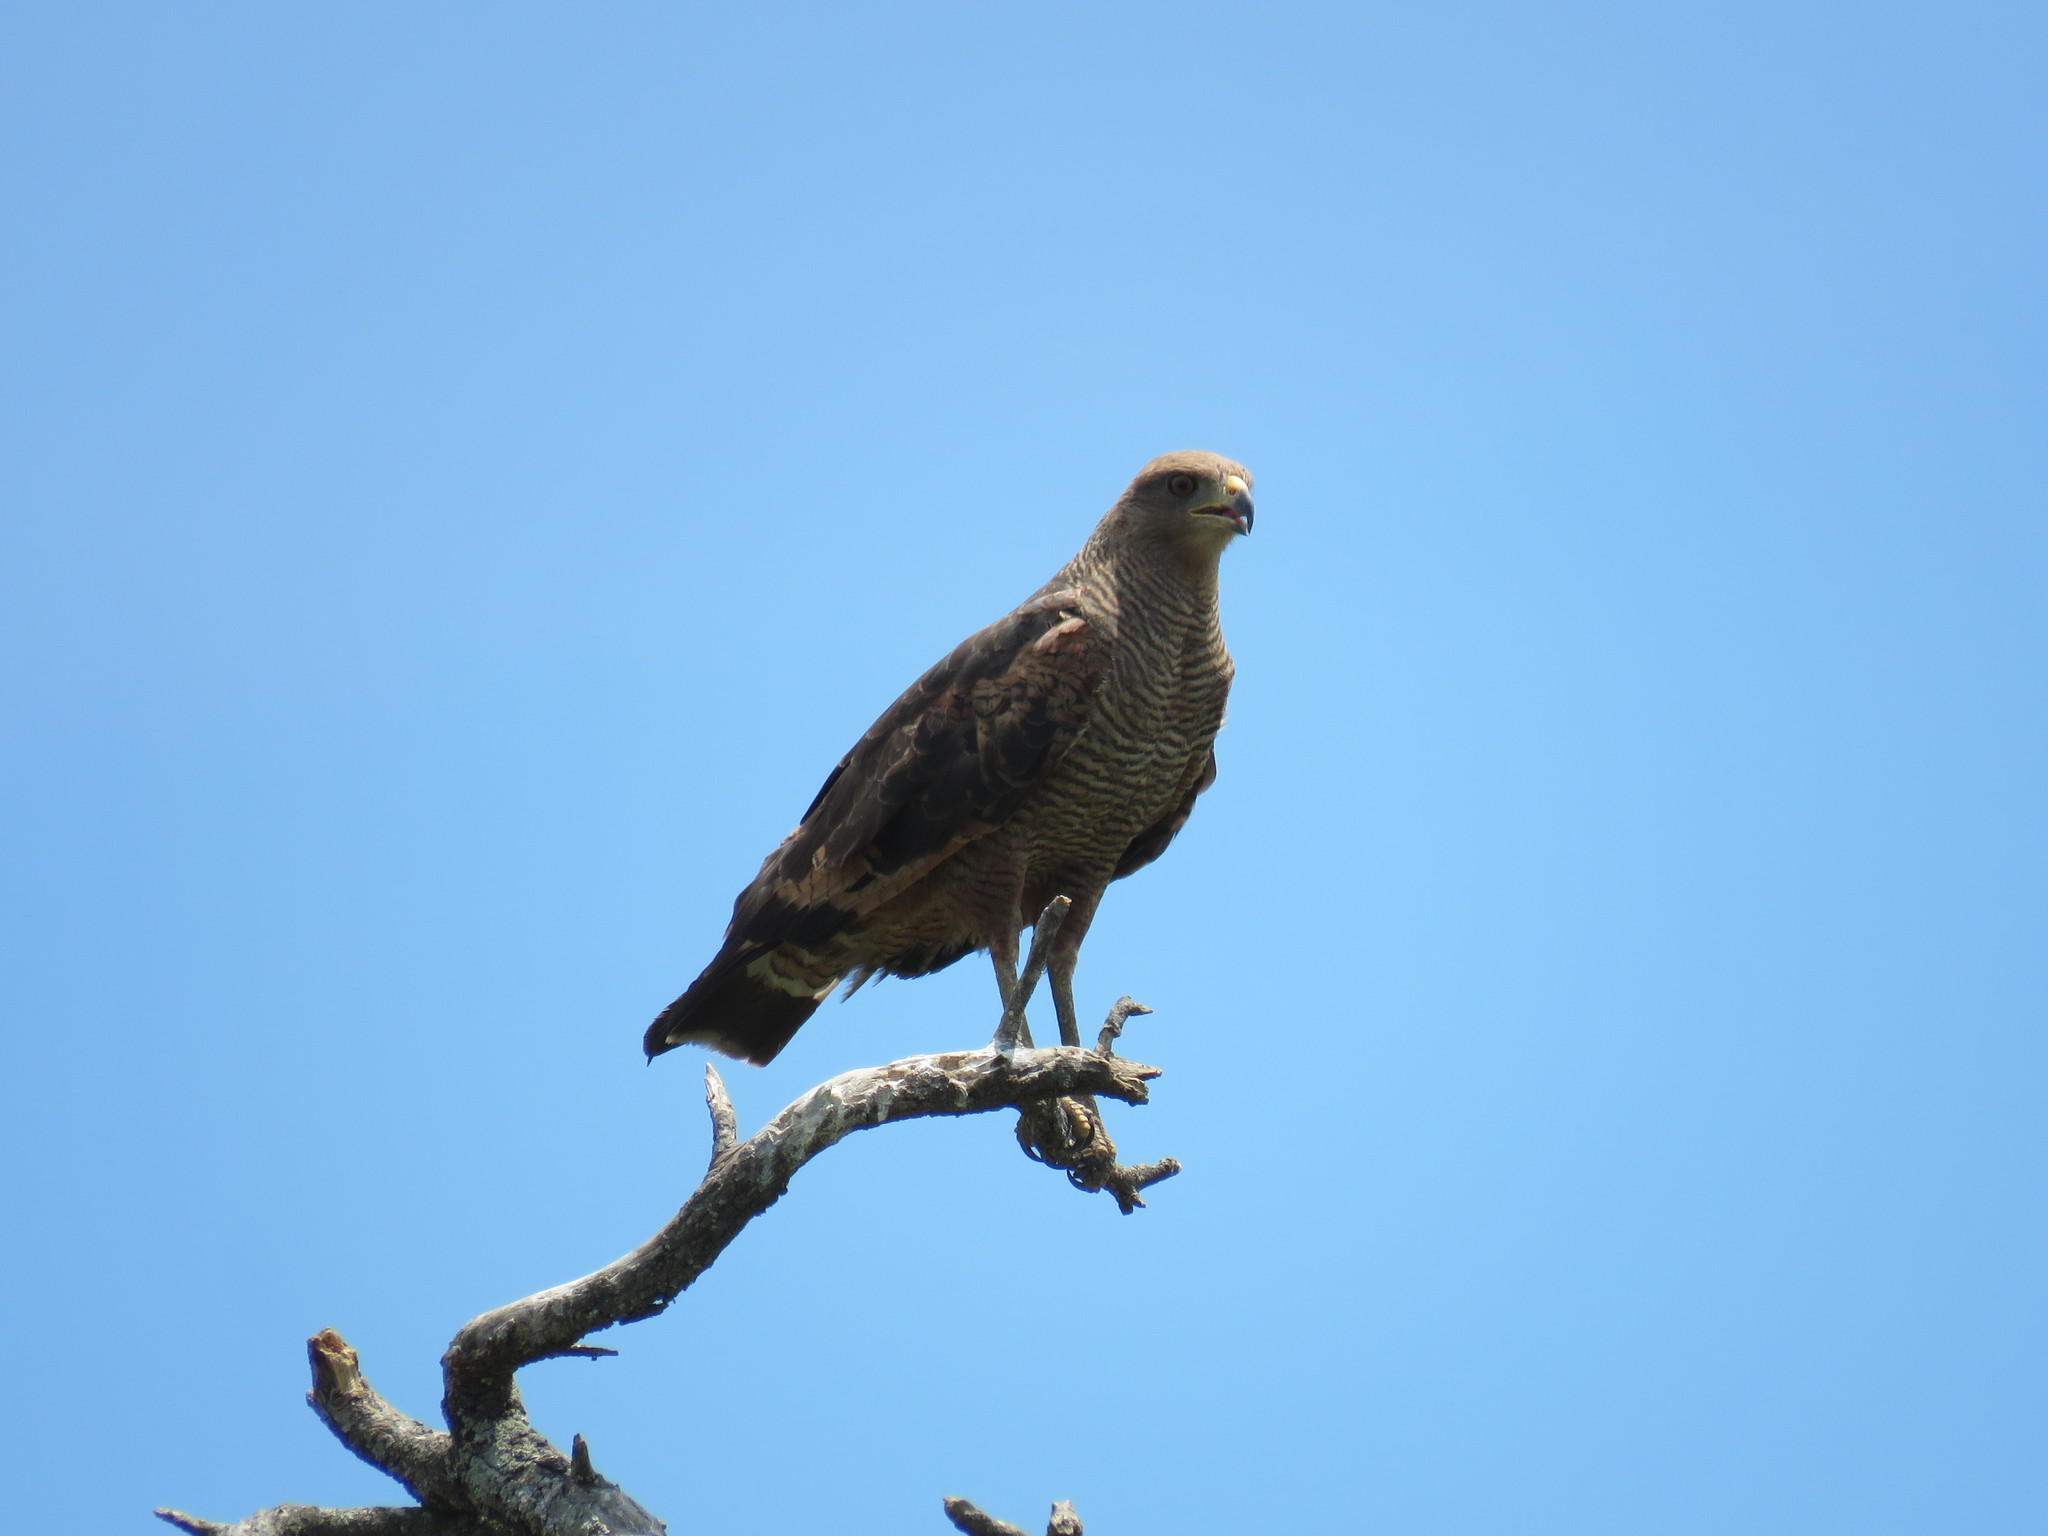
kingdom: Animalia
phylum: Chordata
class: Aves
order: Accipitriformes
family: Accipitridae
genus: Buteogallus
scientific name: Buteogallus meridionalis
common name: Savanna hawk
